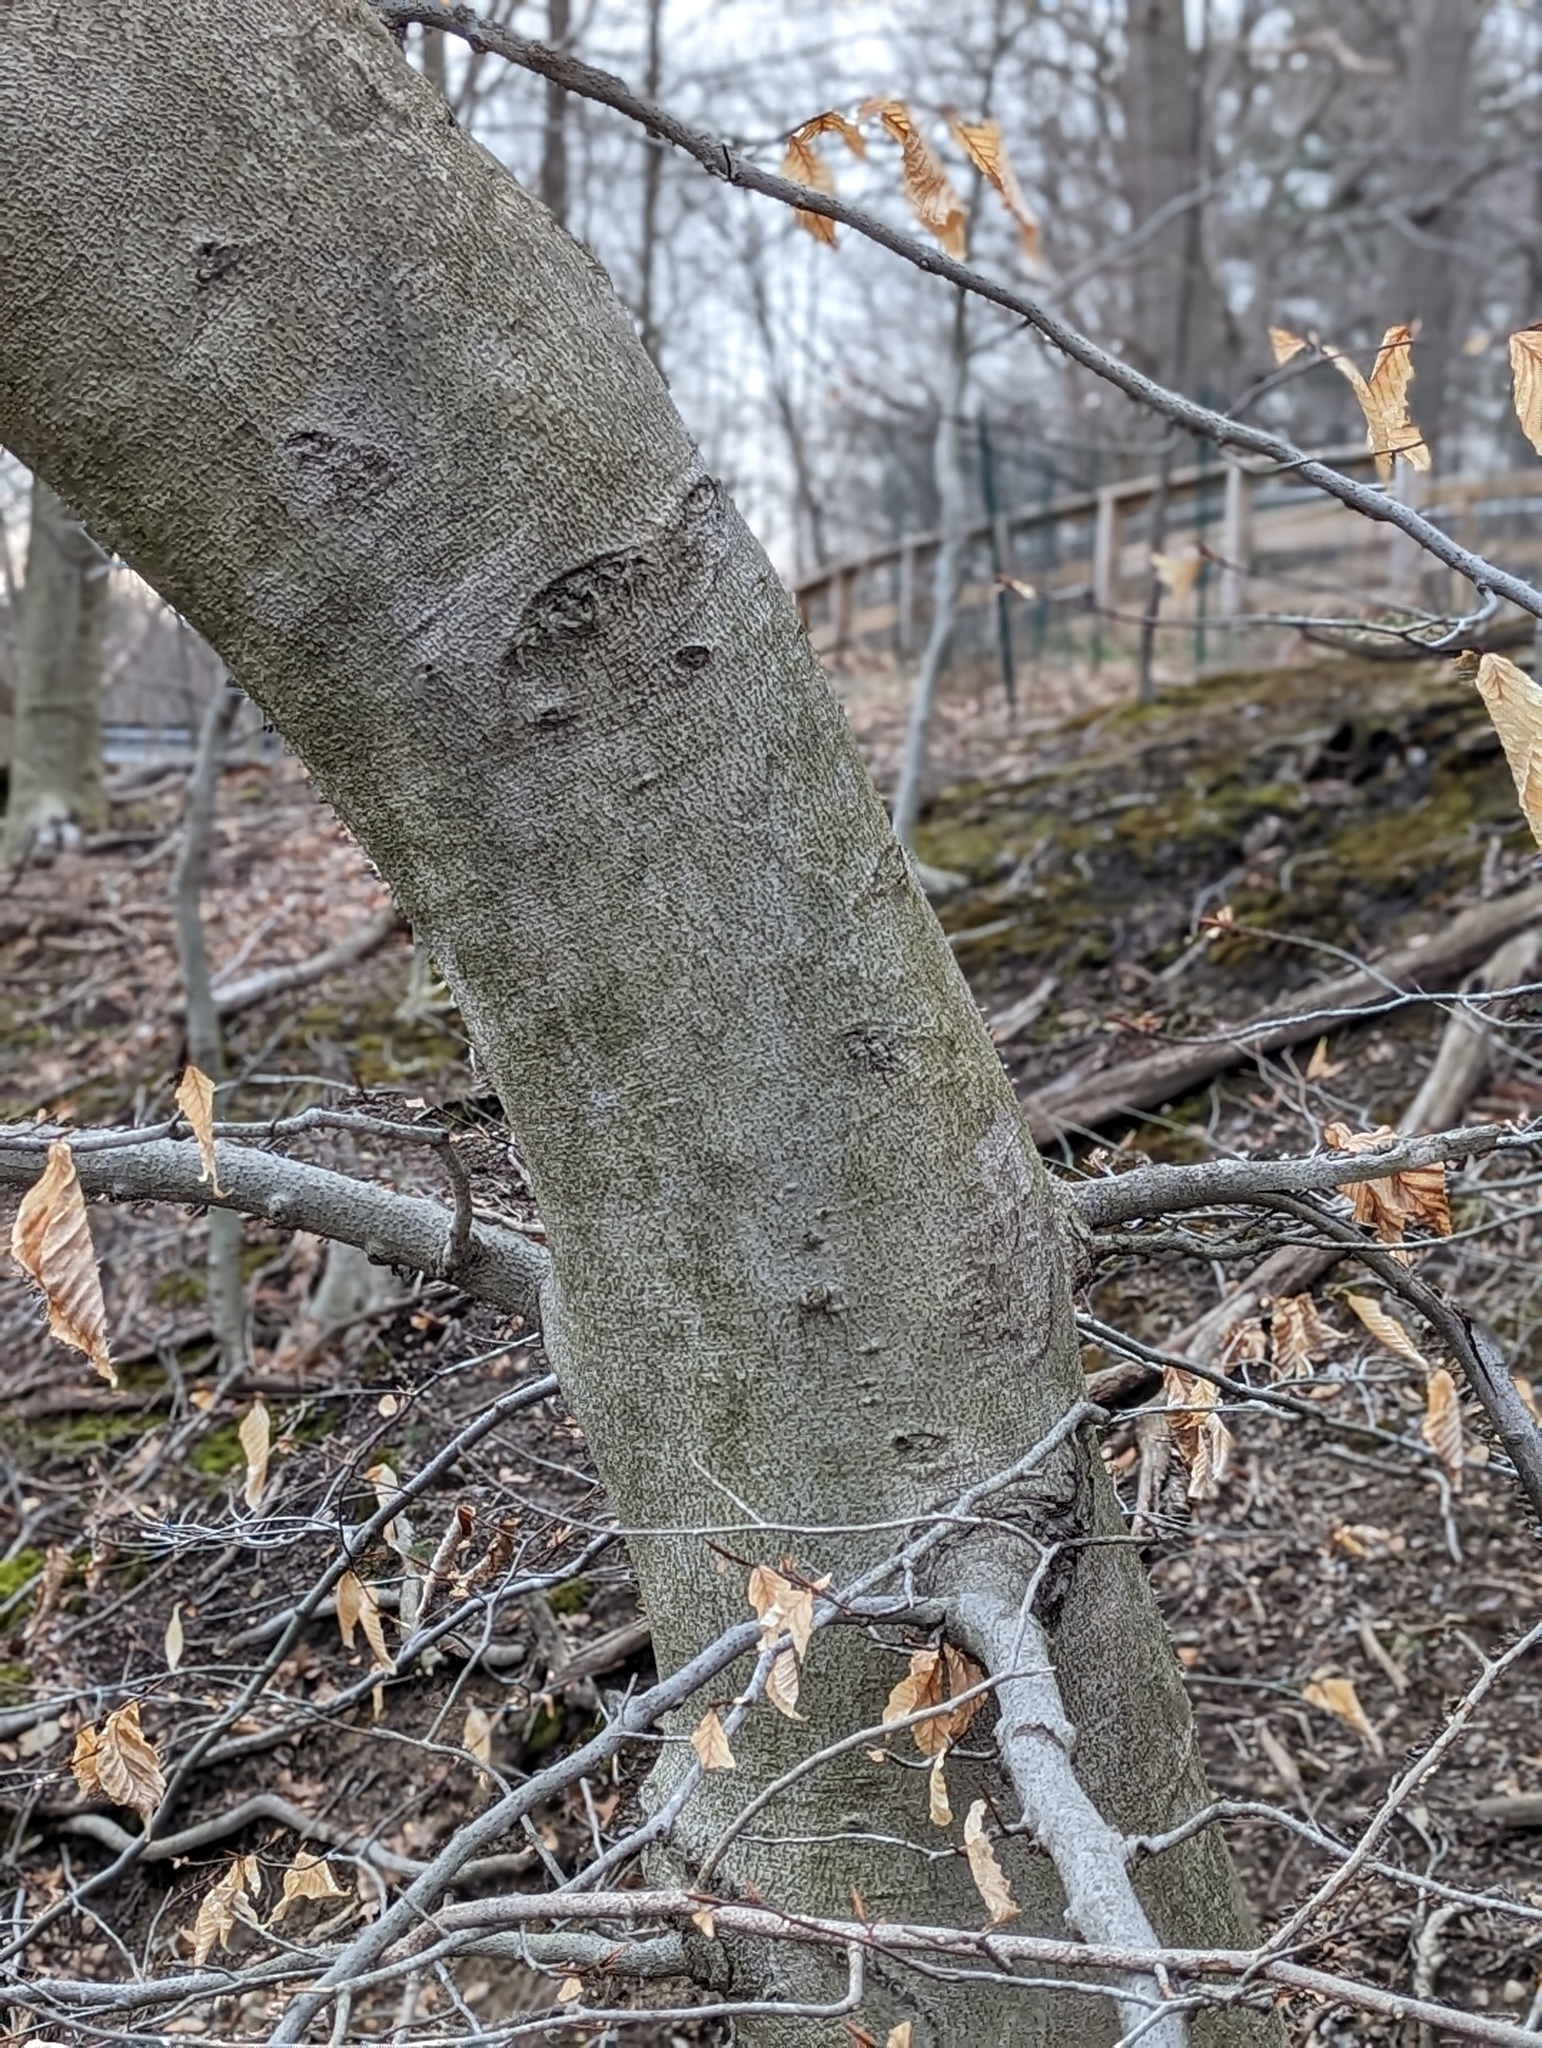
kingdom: Plantae
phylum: Tracheophyta
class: Magnoliopsida
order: Fagales
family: Fagaceae
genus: Fagus
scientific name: Fagus grandifolia
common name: American beech
